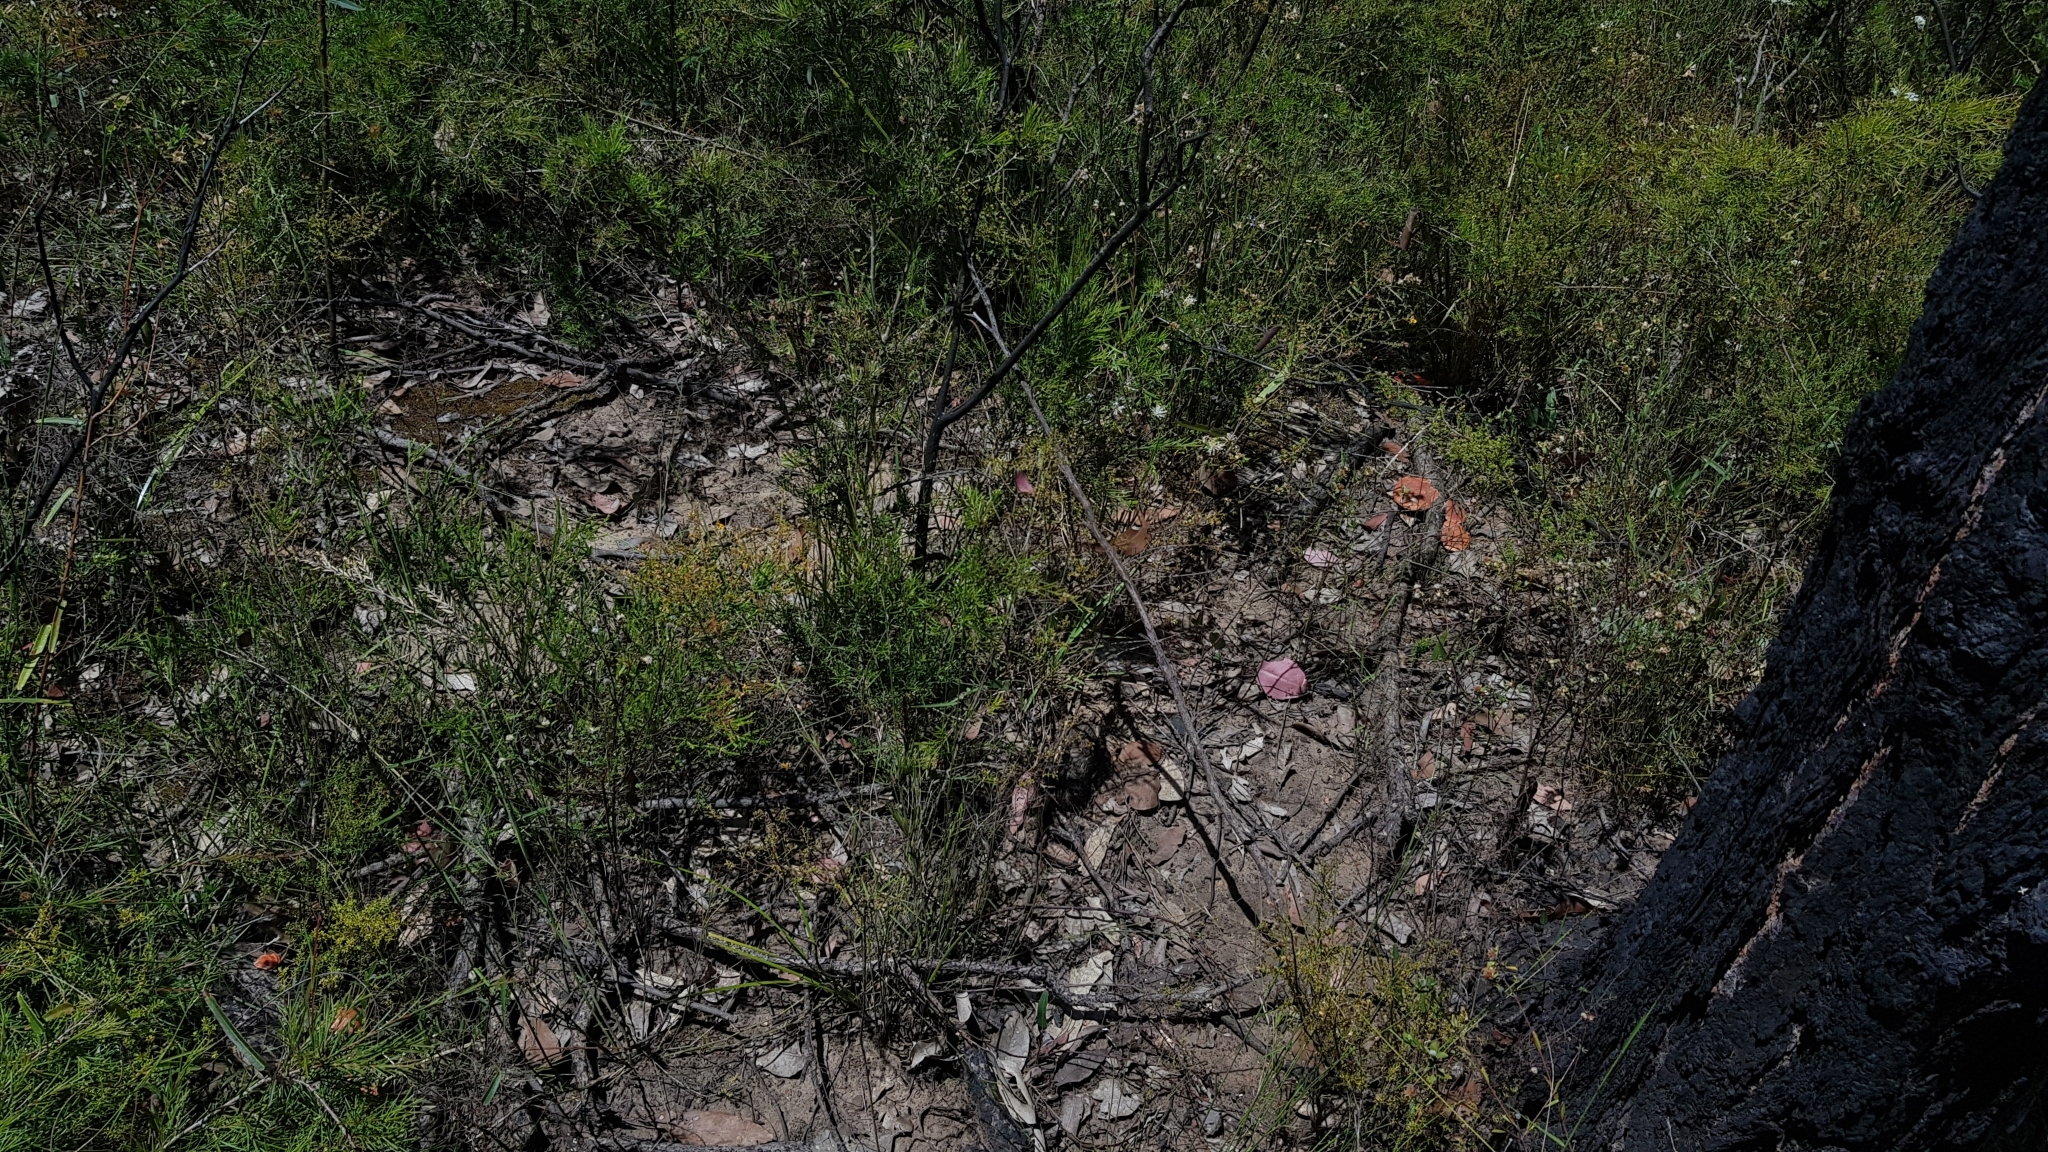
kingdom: Fungi
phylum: Basidiomycota
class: Agaricomycetes
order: Polyporales
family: Polyporaceae
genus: Trametes
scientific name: Trametes coccinea
